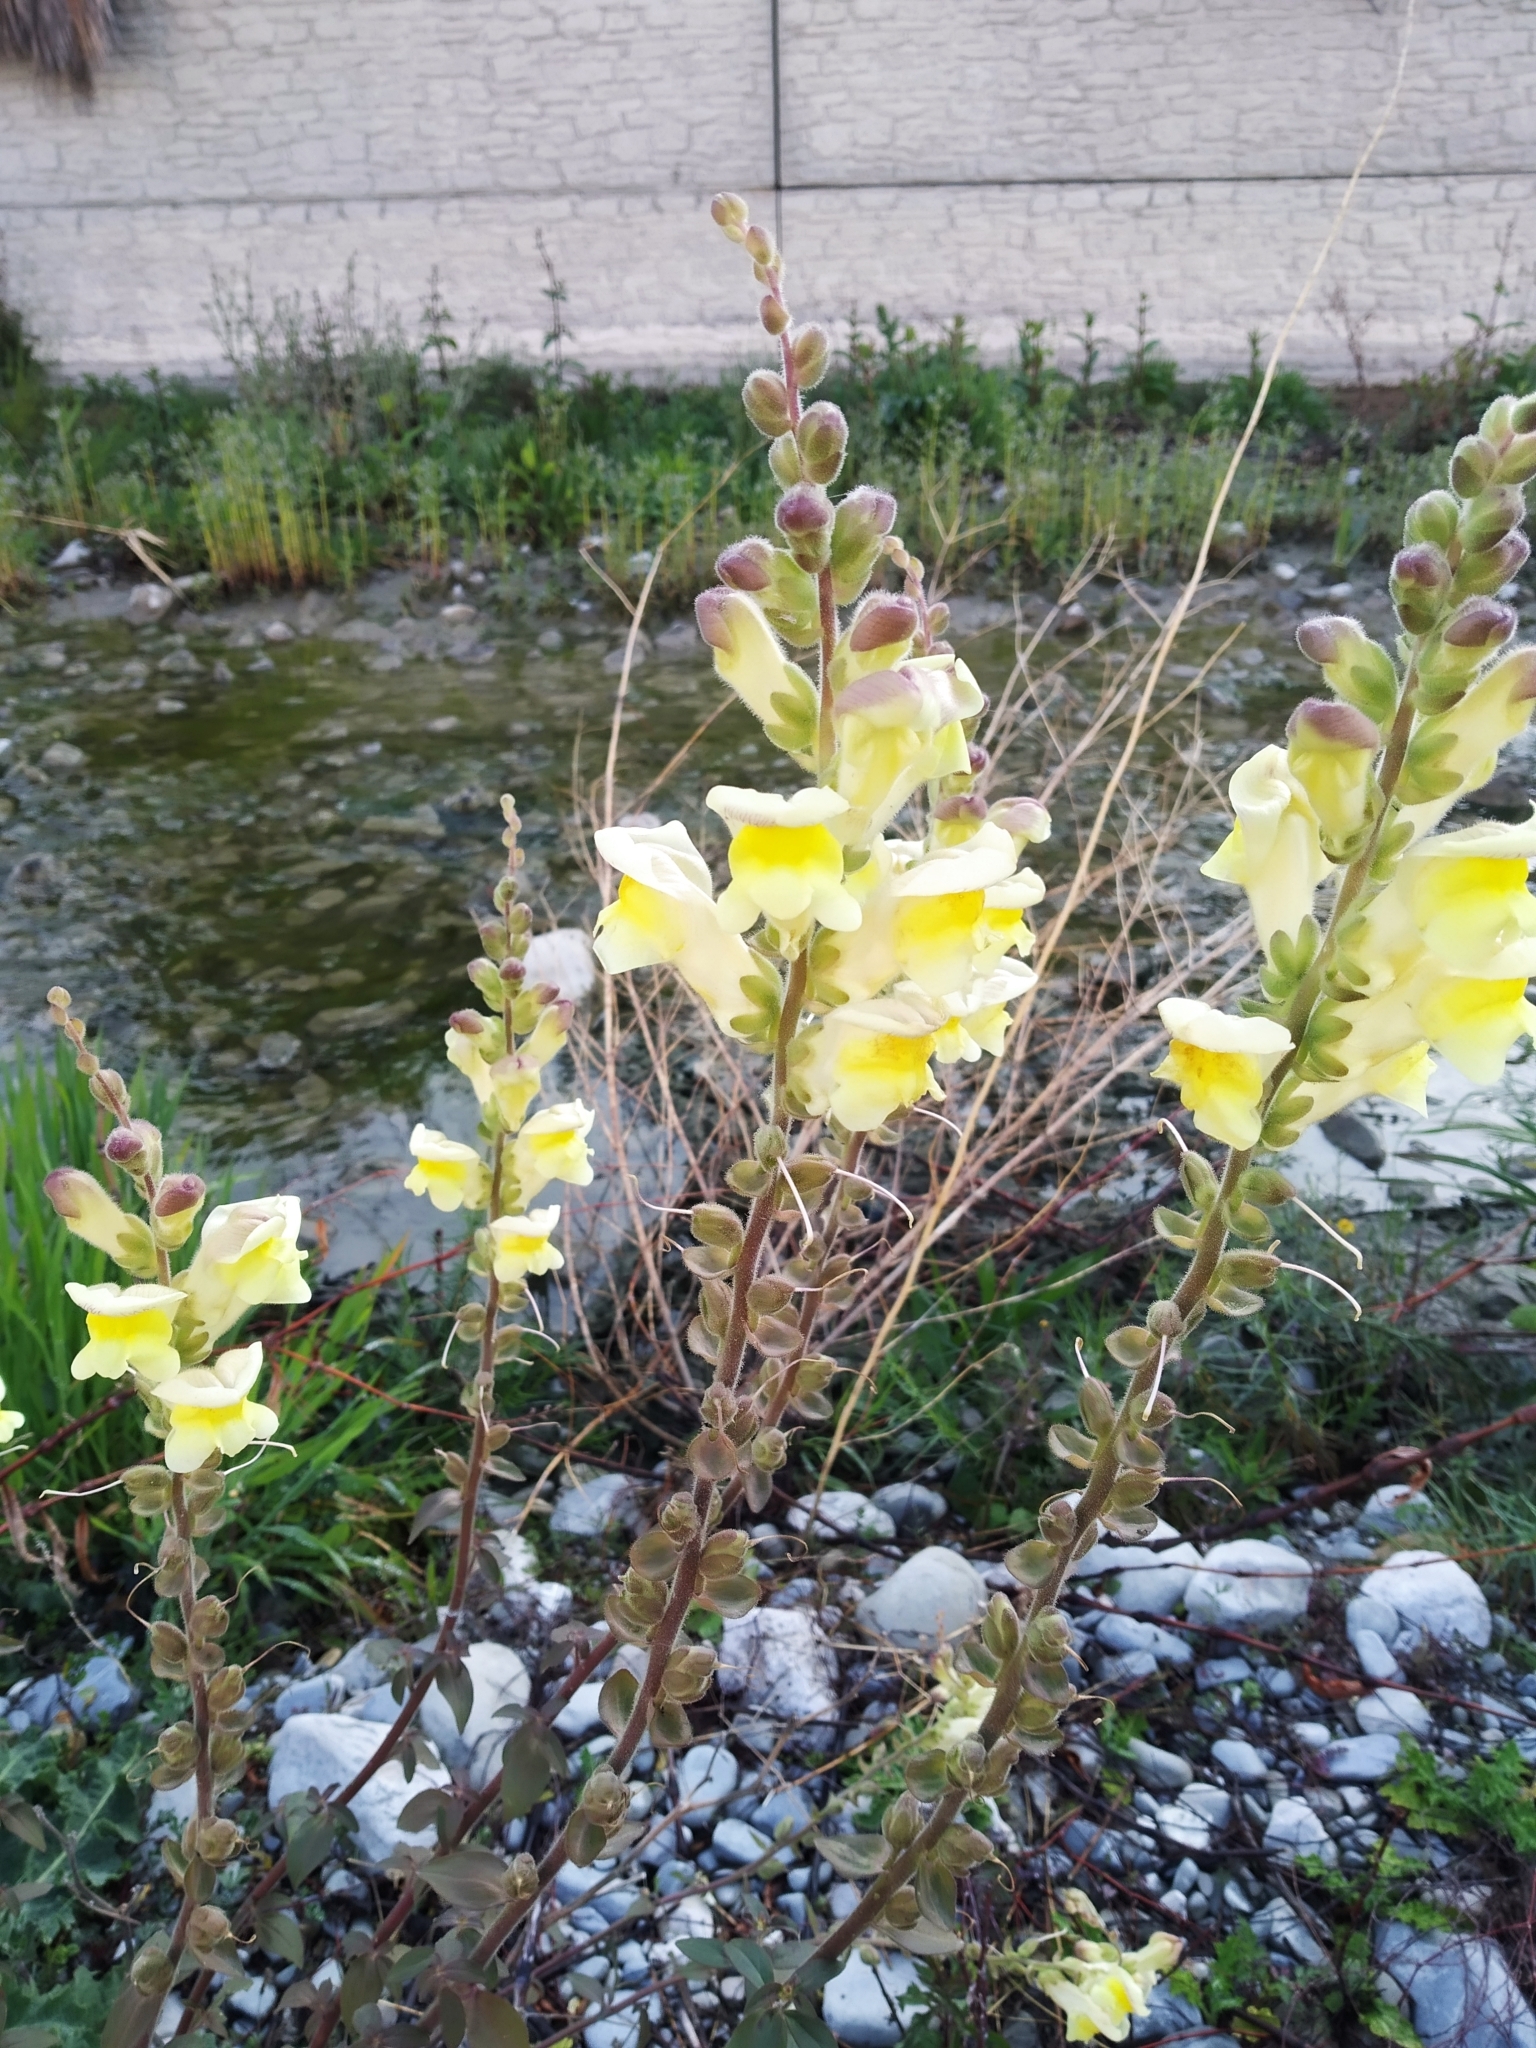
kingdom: Plantae
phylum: Tracheophyta
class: Magnoliopsida
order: Lamiales
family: Plantaginaceae
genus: Antirrhinum
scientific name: Antirrhinum latifolium
